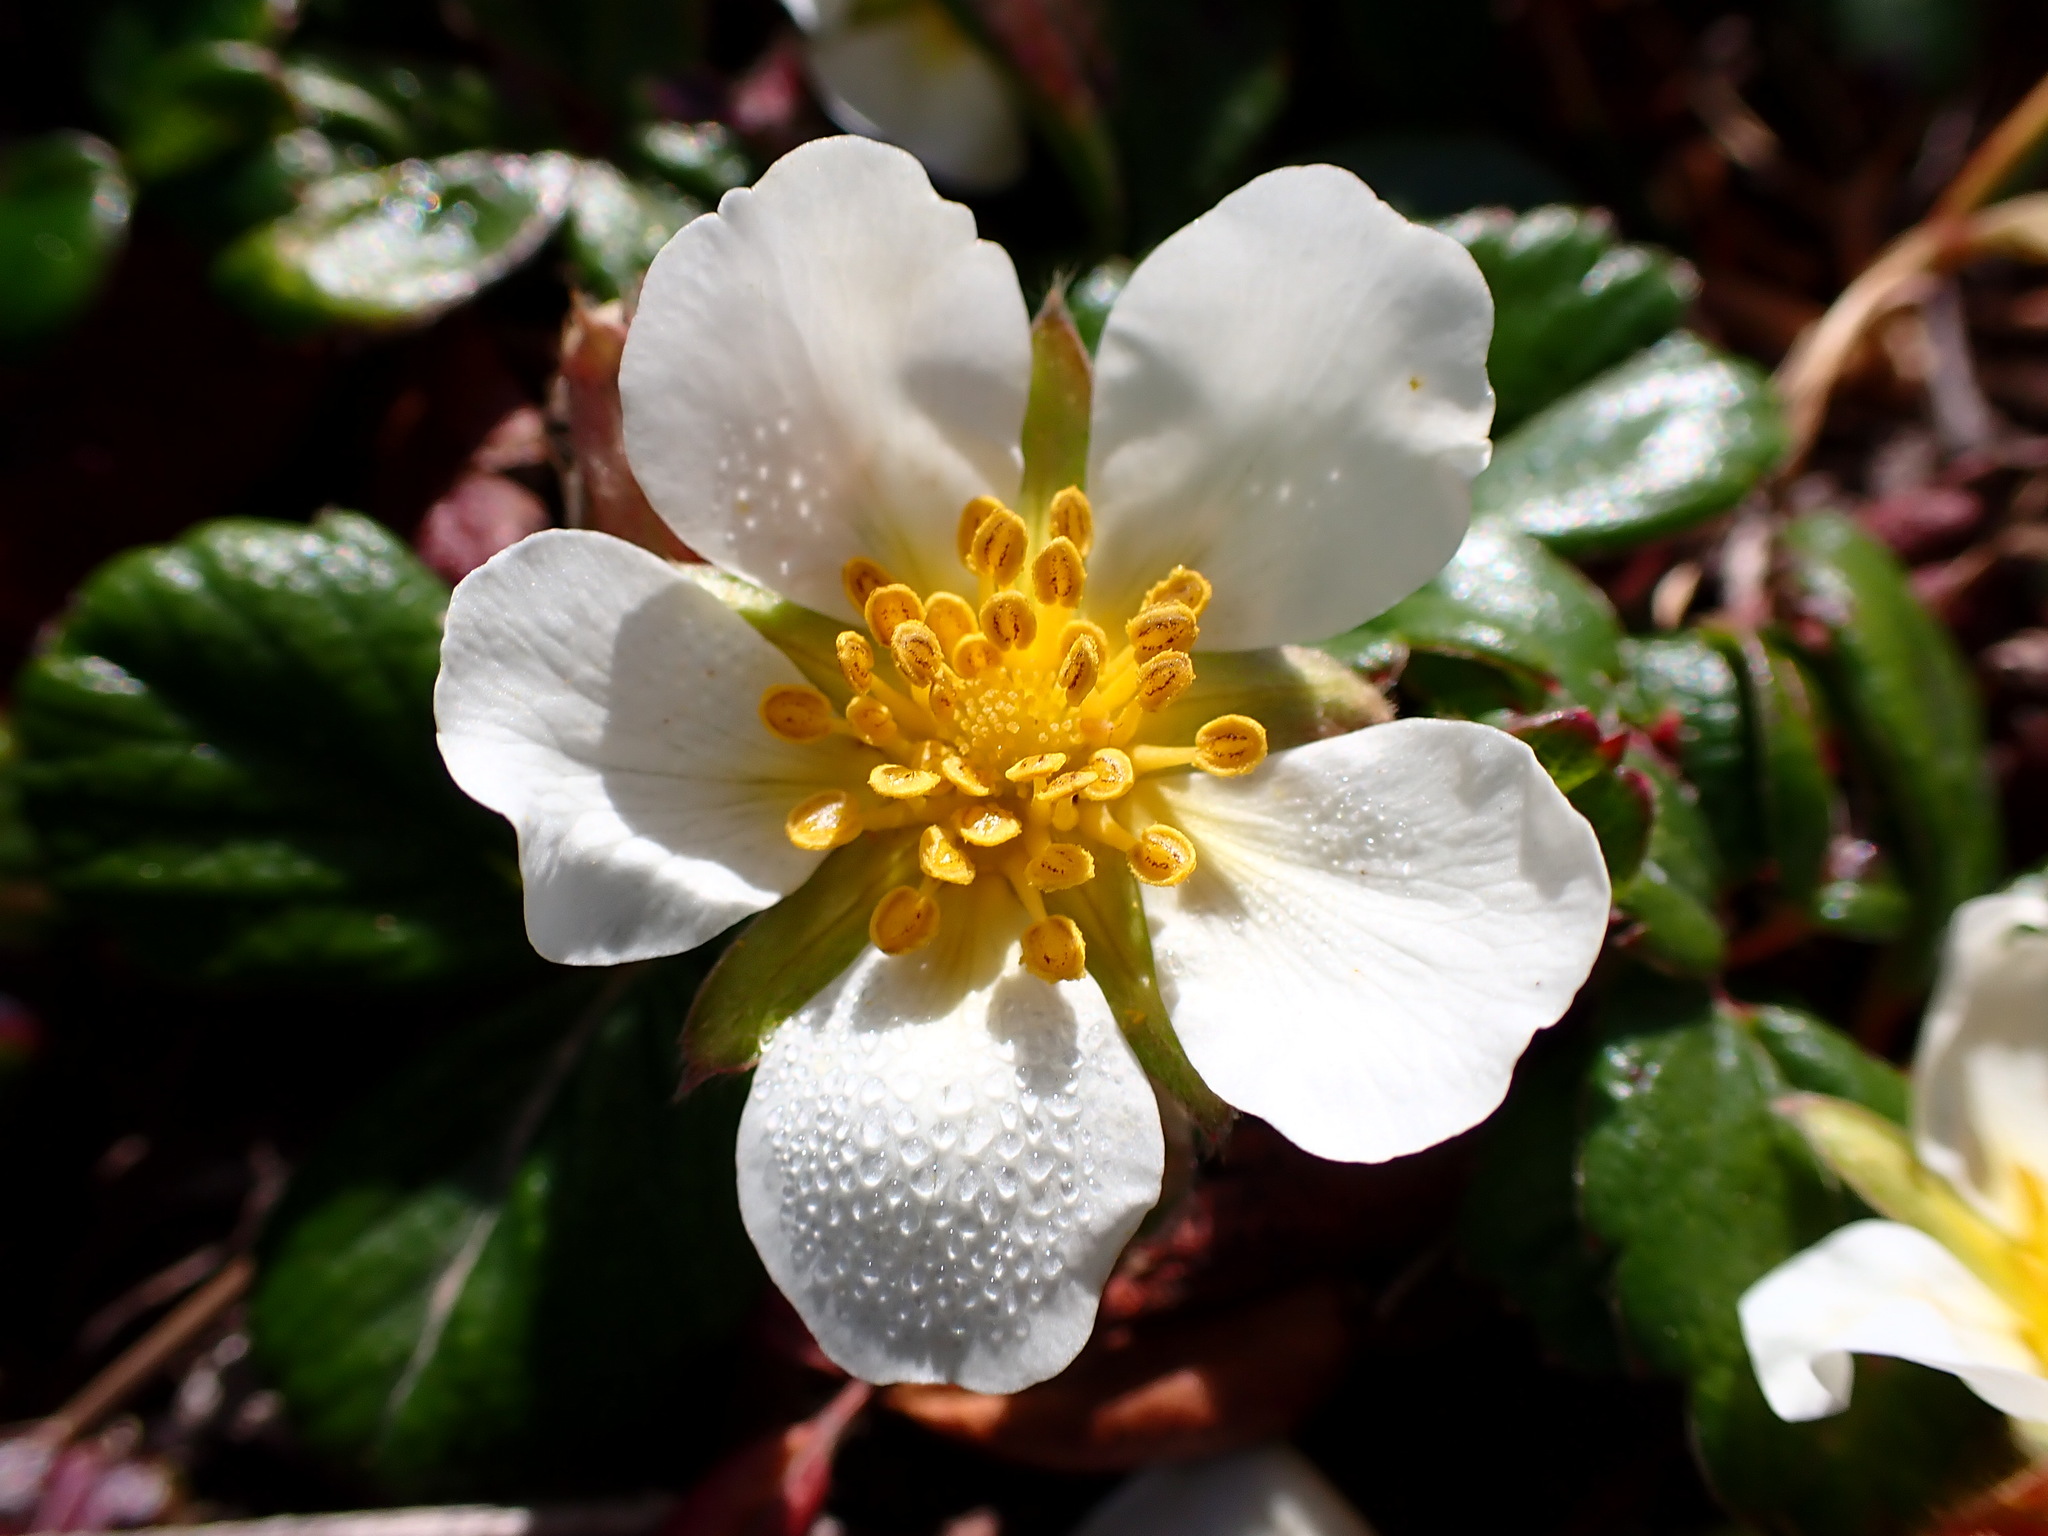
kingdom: Plantae
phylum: Tracheophyta
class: Magnoliopsida
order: Rosales
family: Rosaceae
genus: Fragaria
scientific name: Fragaria chiloensis
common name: Beach strawberry
